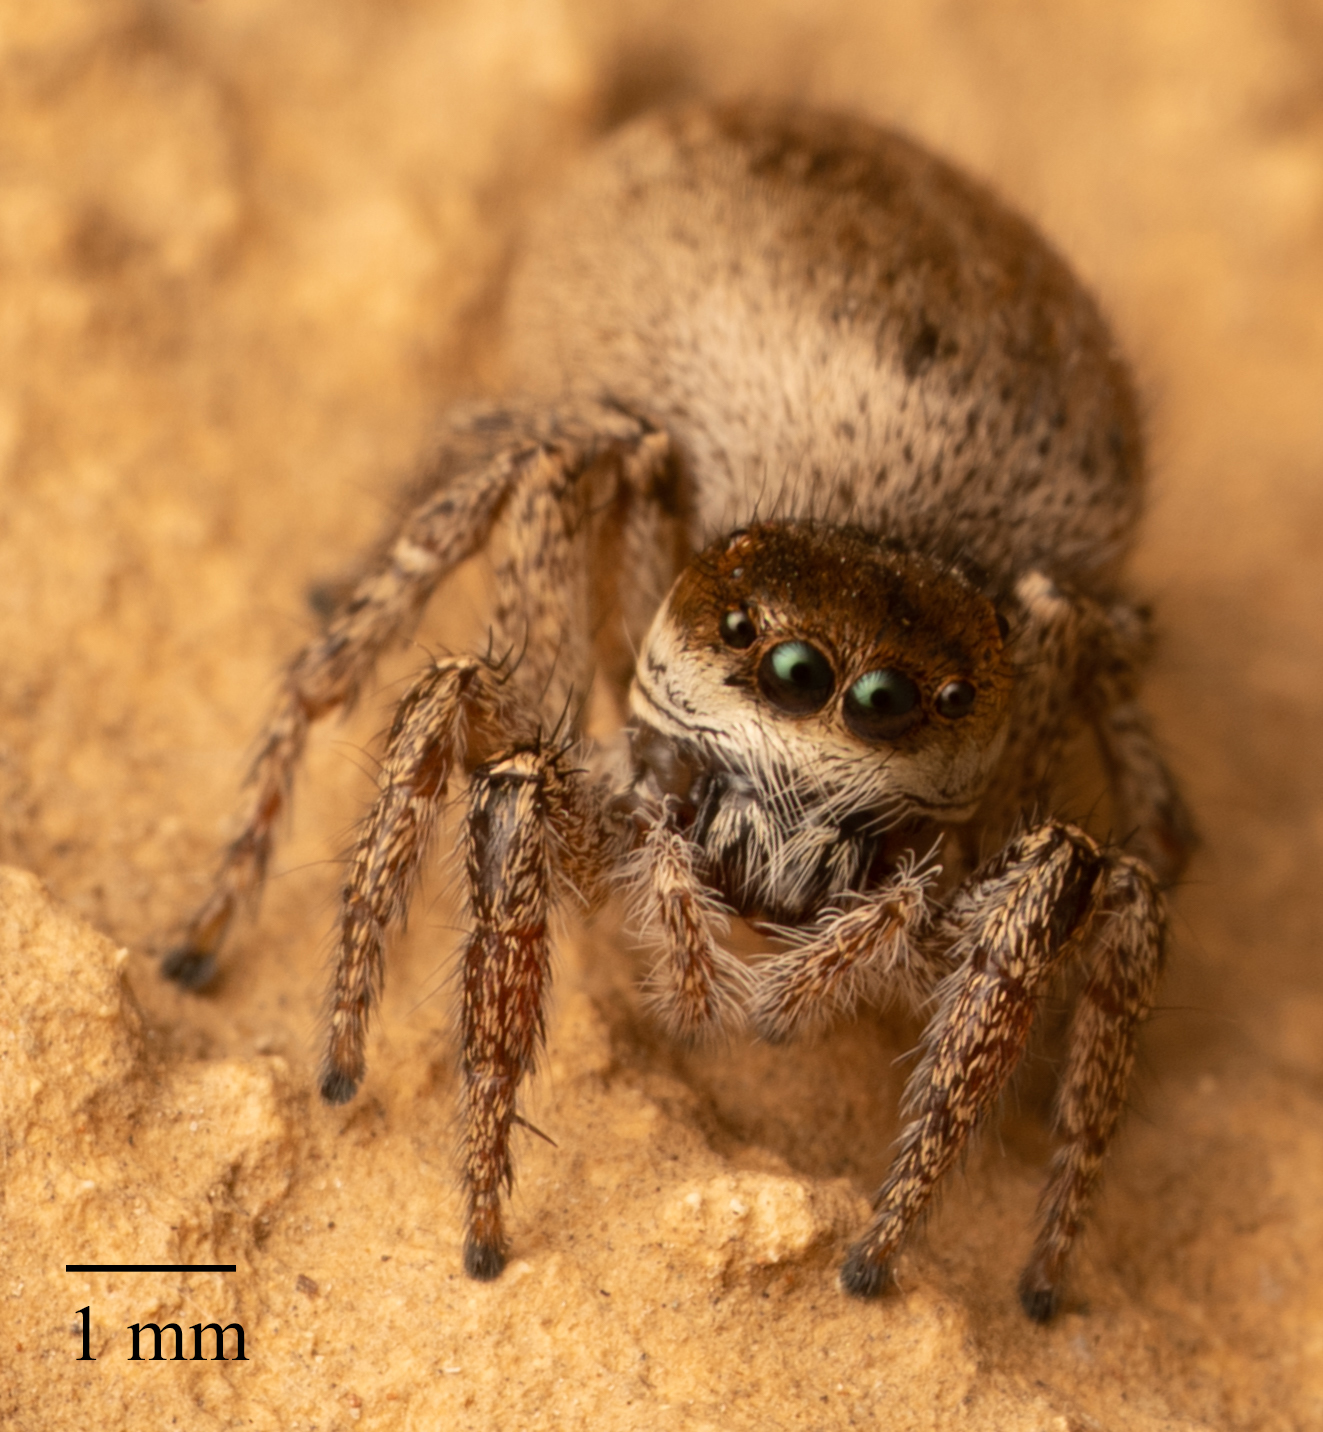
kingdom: Animalia
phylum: Arthropoda
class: Arachnida
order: Araneae
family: Salticidae
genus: Habronattus
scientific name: Habronattus pyrrithrix
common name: Jumping spider
